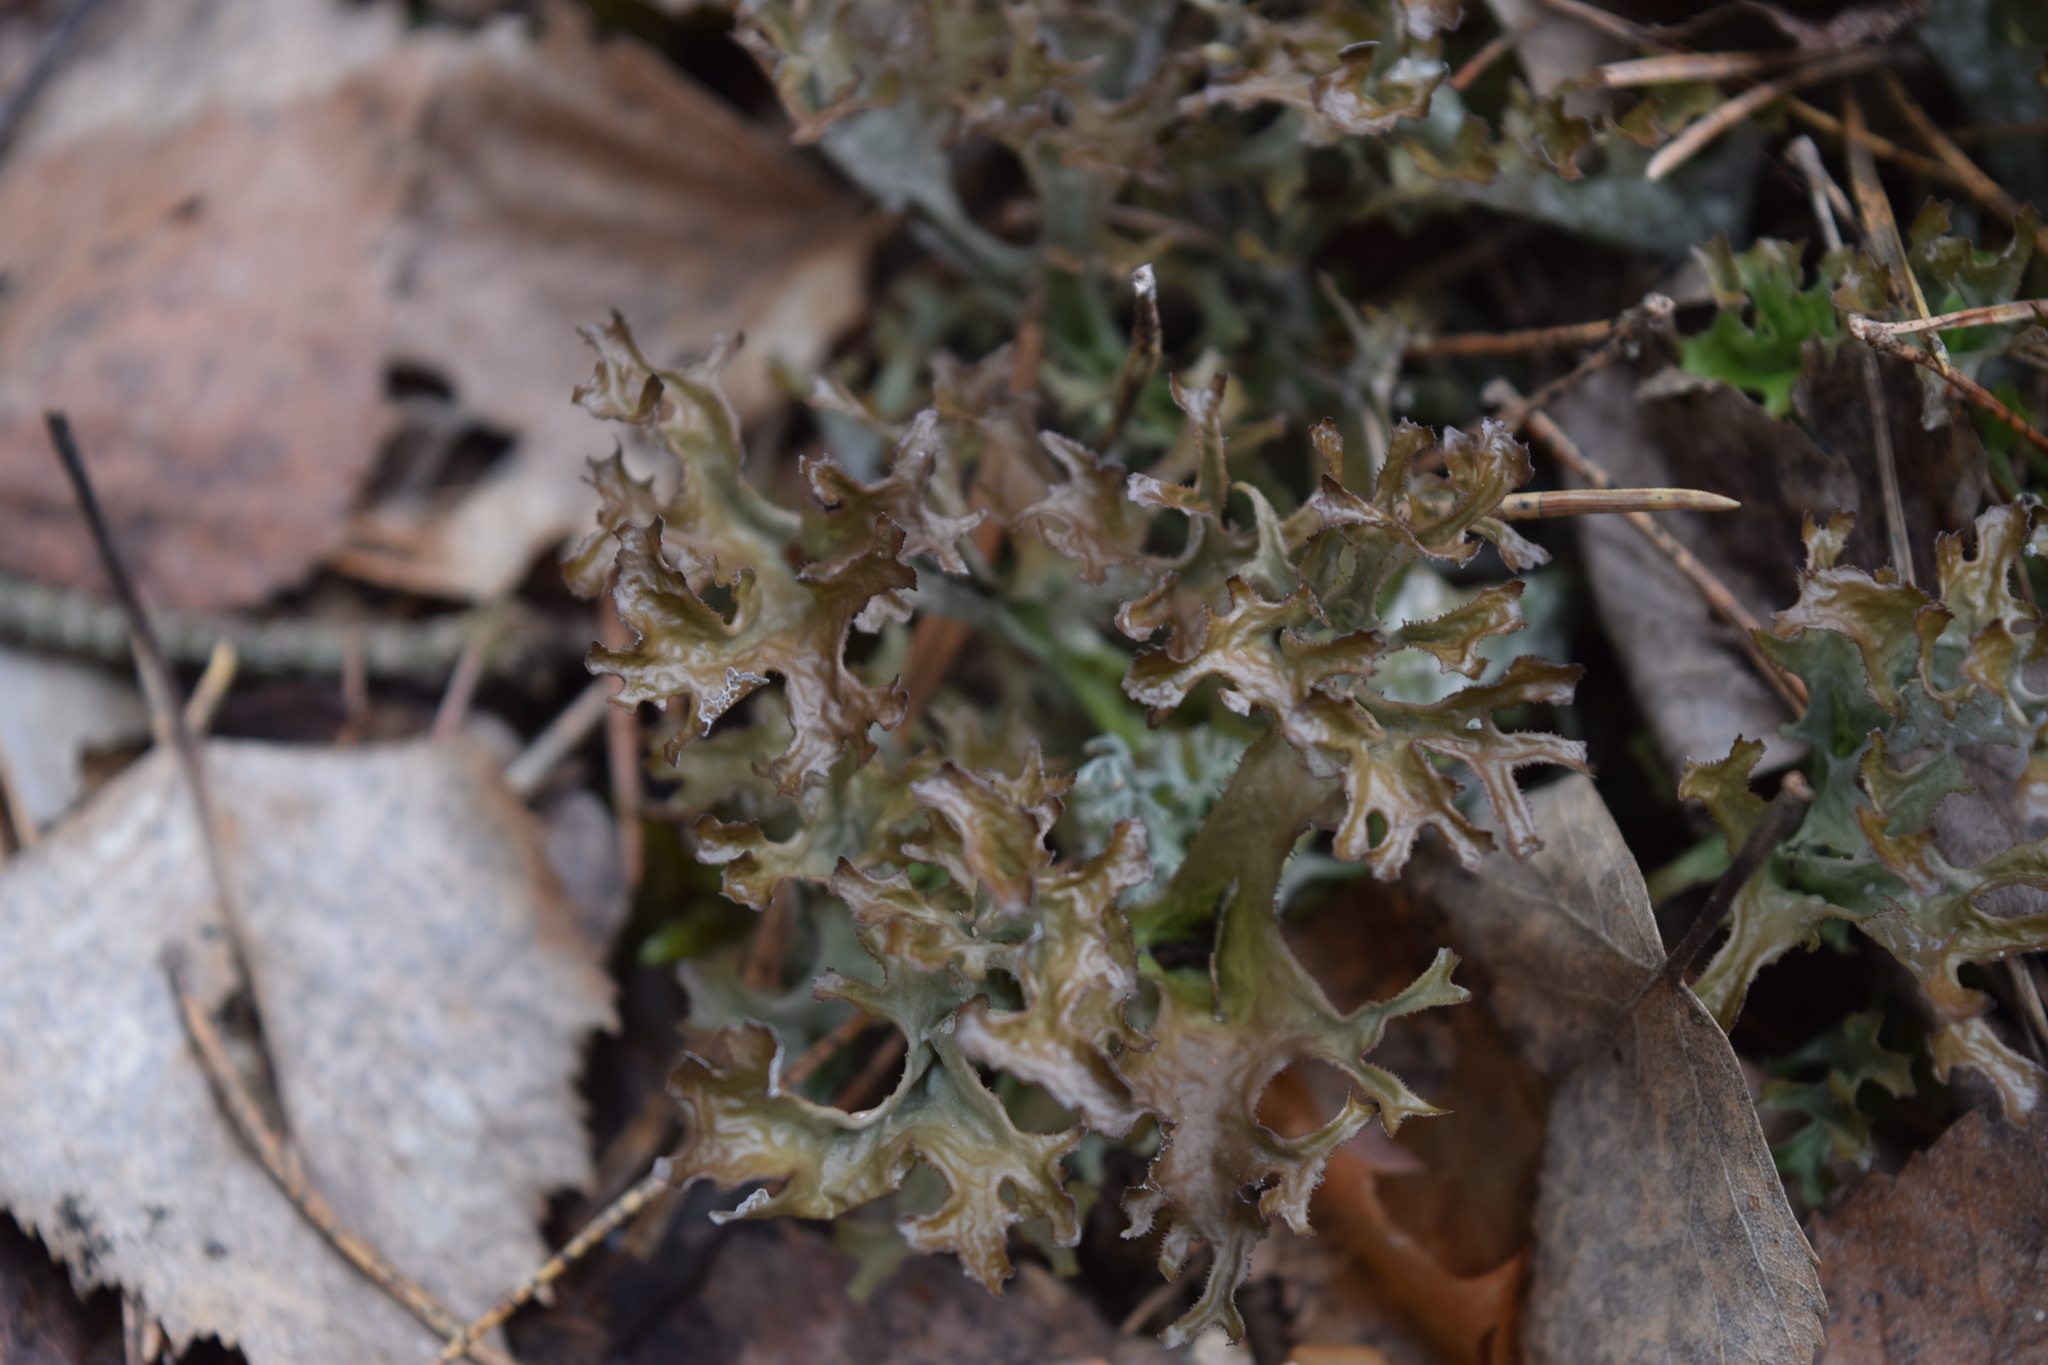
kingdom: Fungi
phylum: Ascomycota
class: Lecanoromycetes
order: Lecanorales
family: Parmeliaceae
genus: Cetraria
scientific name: Cetraria islandica
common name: Iceland lichen
